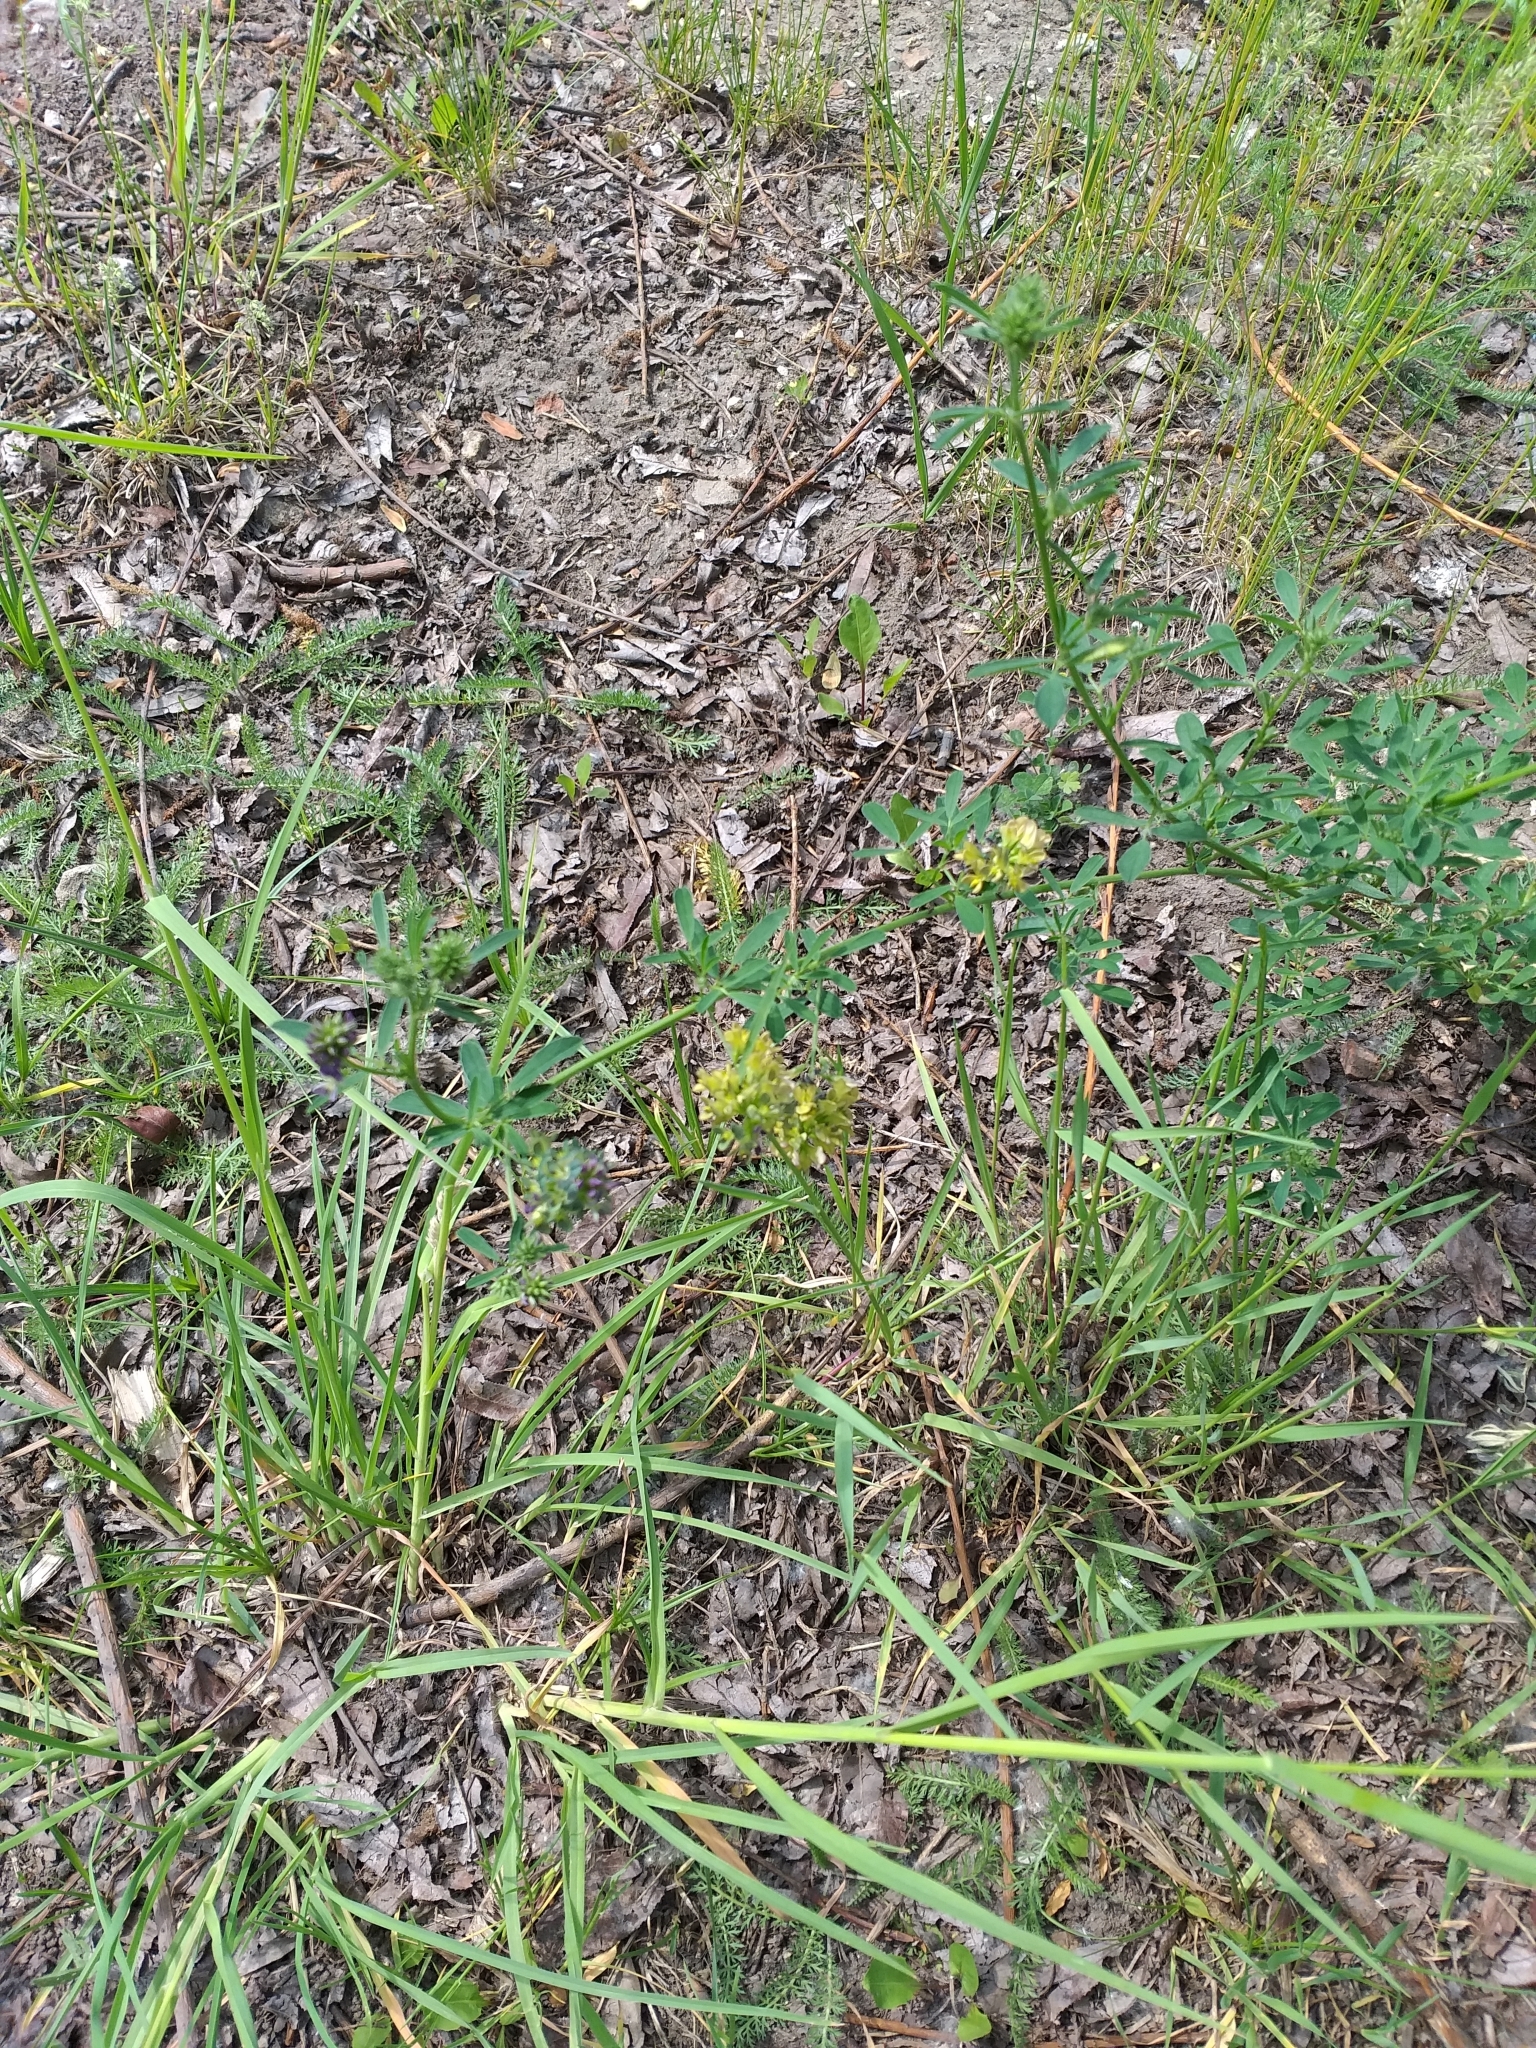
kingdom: Plantae
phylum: Tracheophyta
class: Magnoliopsida
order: Fabales
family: Fabaceae
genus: Medicago
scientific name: Medicago varia
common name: Sand lucerne
